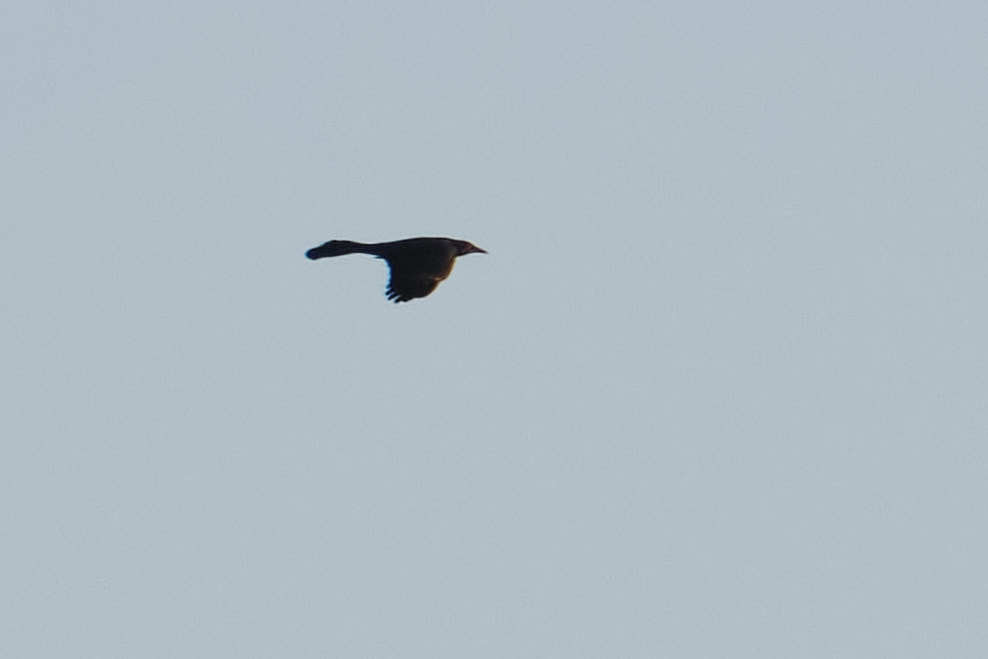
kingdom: Animalia
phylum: Chordata
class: Aves
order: Passeriformes
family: Icteridae
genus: Quiscalus
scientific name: Quiscalus mexicanus
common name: Great-tailed grackle
